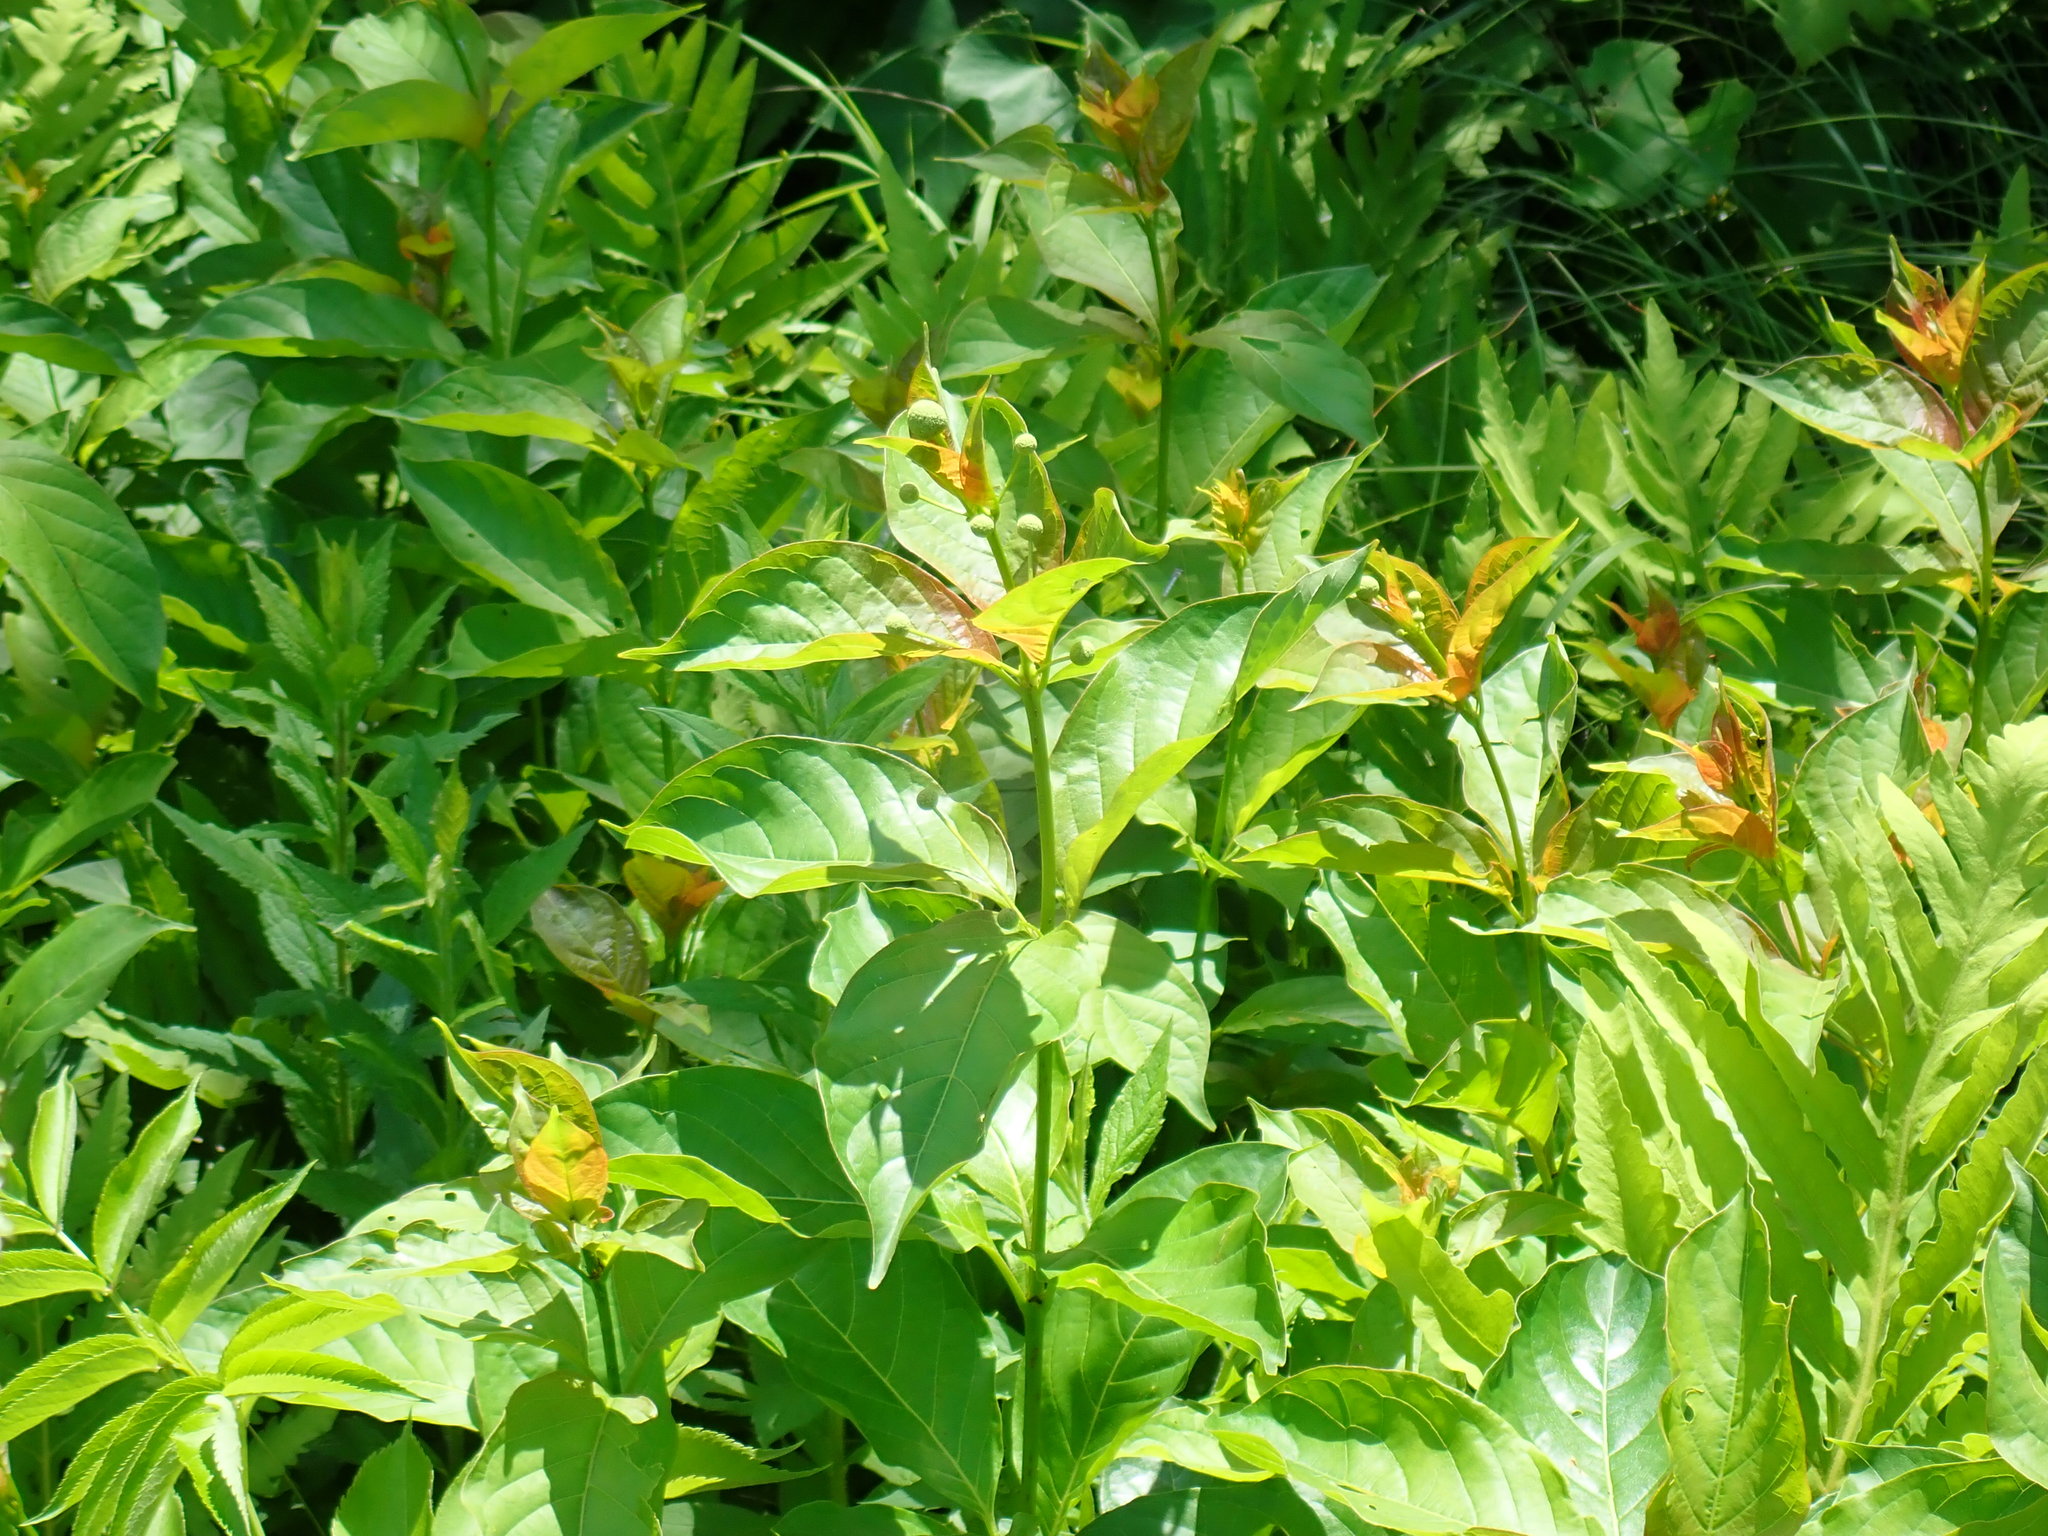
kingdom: Plantae
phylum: Tracheophyta
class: Magnoliopsida
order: Gentianales
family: Rubiaceae
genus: Cephalanthus
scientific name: Cephalanthus occidentalis
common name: Button-willow
